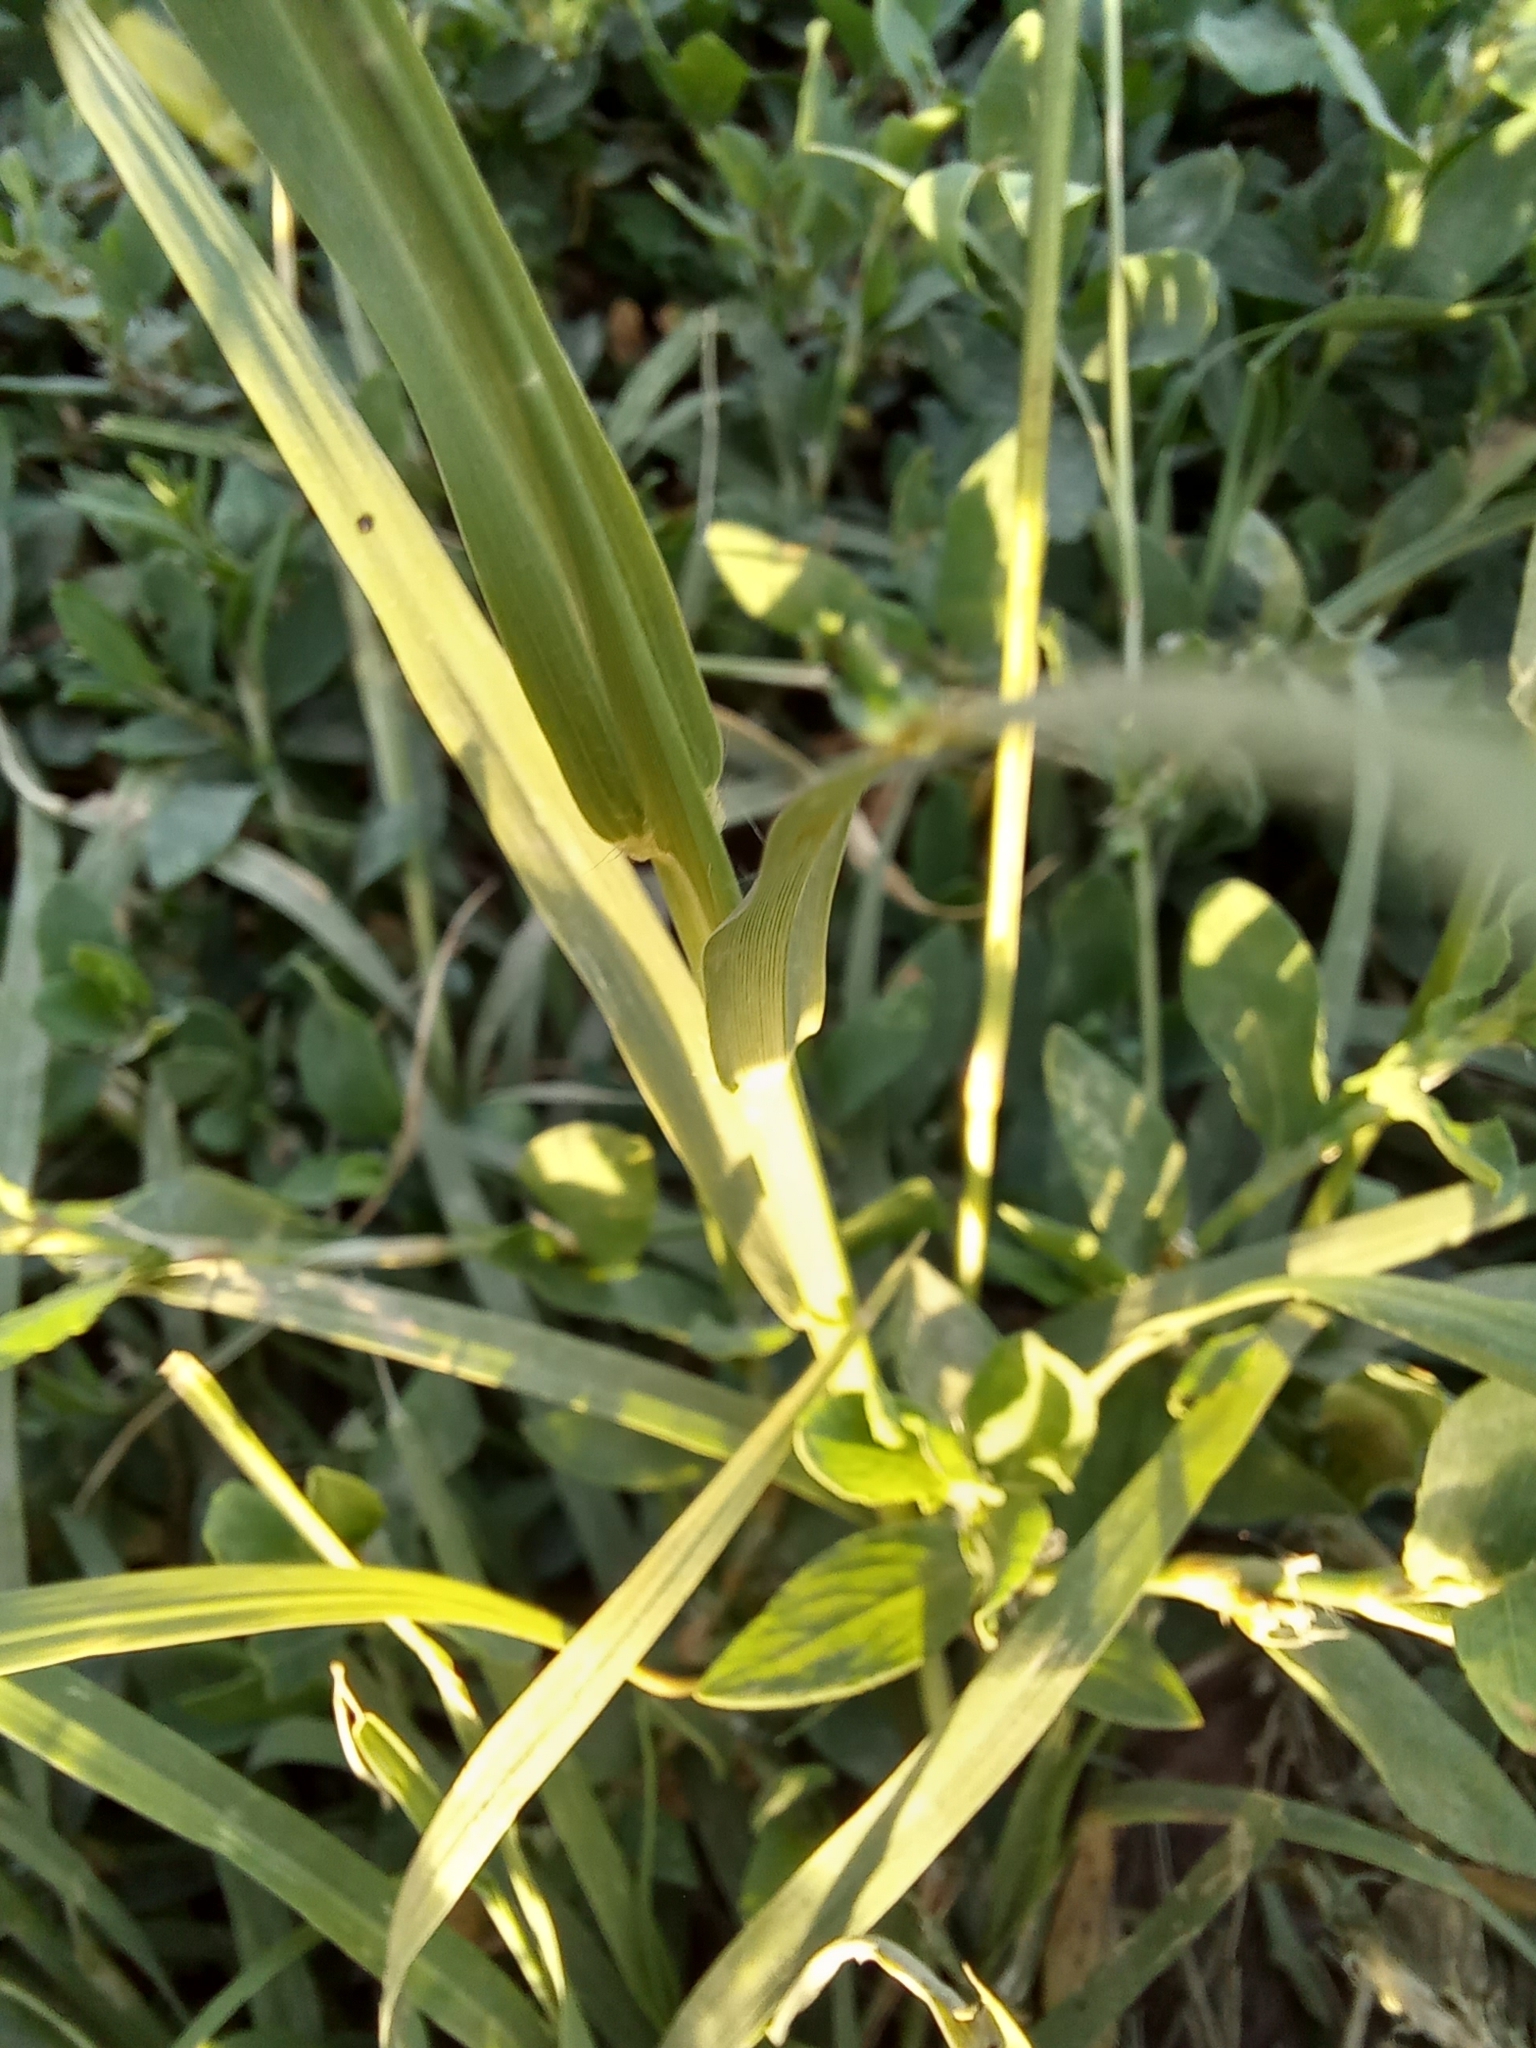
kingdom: Plantae
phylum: Tracheophyta
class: Liliopsida
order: Poales
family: Poaceae
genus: Cynodon
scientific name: Cynodon dactylon
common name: Bermuda grass
